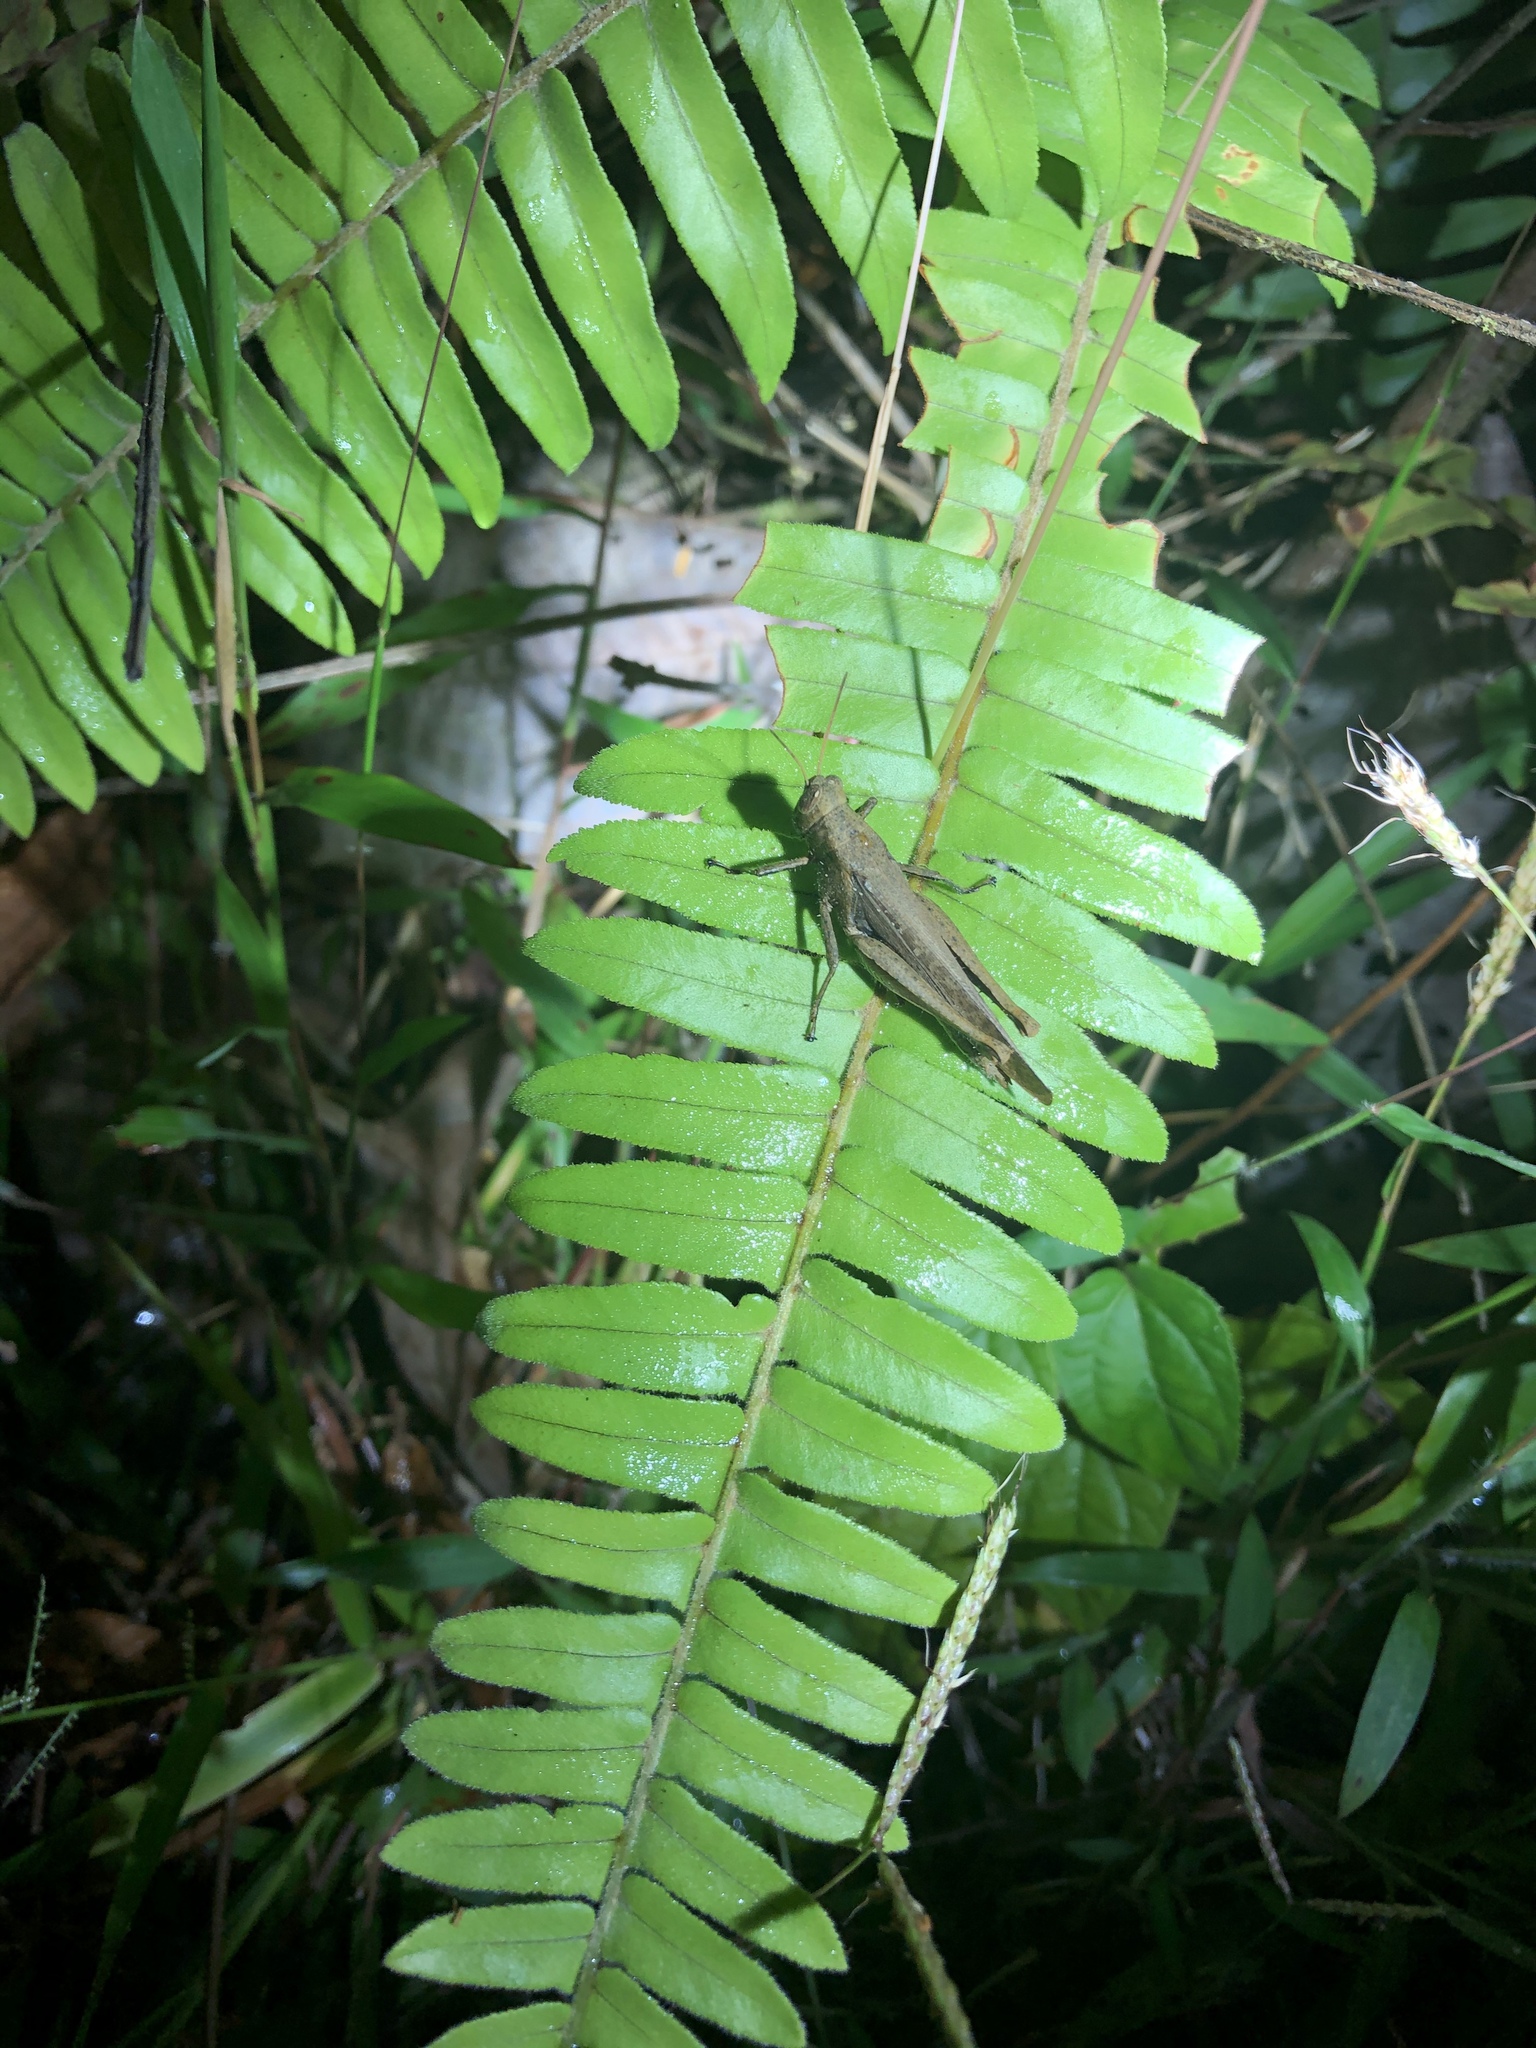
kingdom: Animalia
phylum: Arthropoda
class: Insecta
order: Orthoptera
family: Acrididae
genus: Abracris
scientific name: Abracris flavolineata
